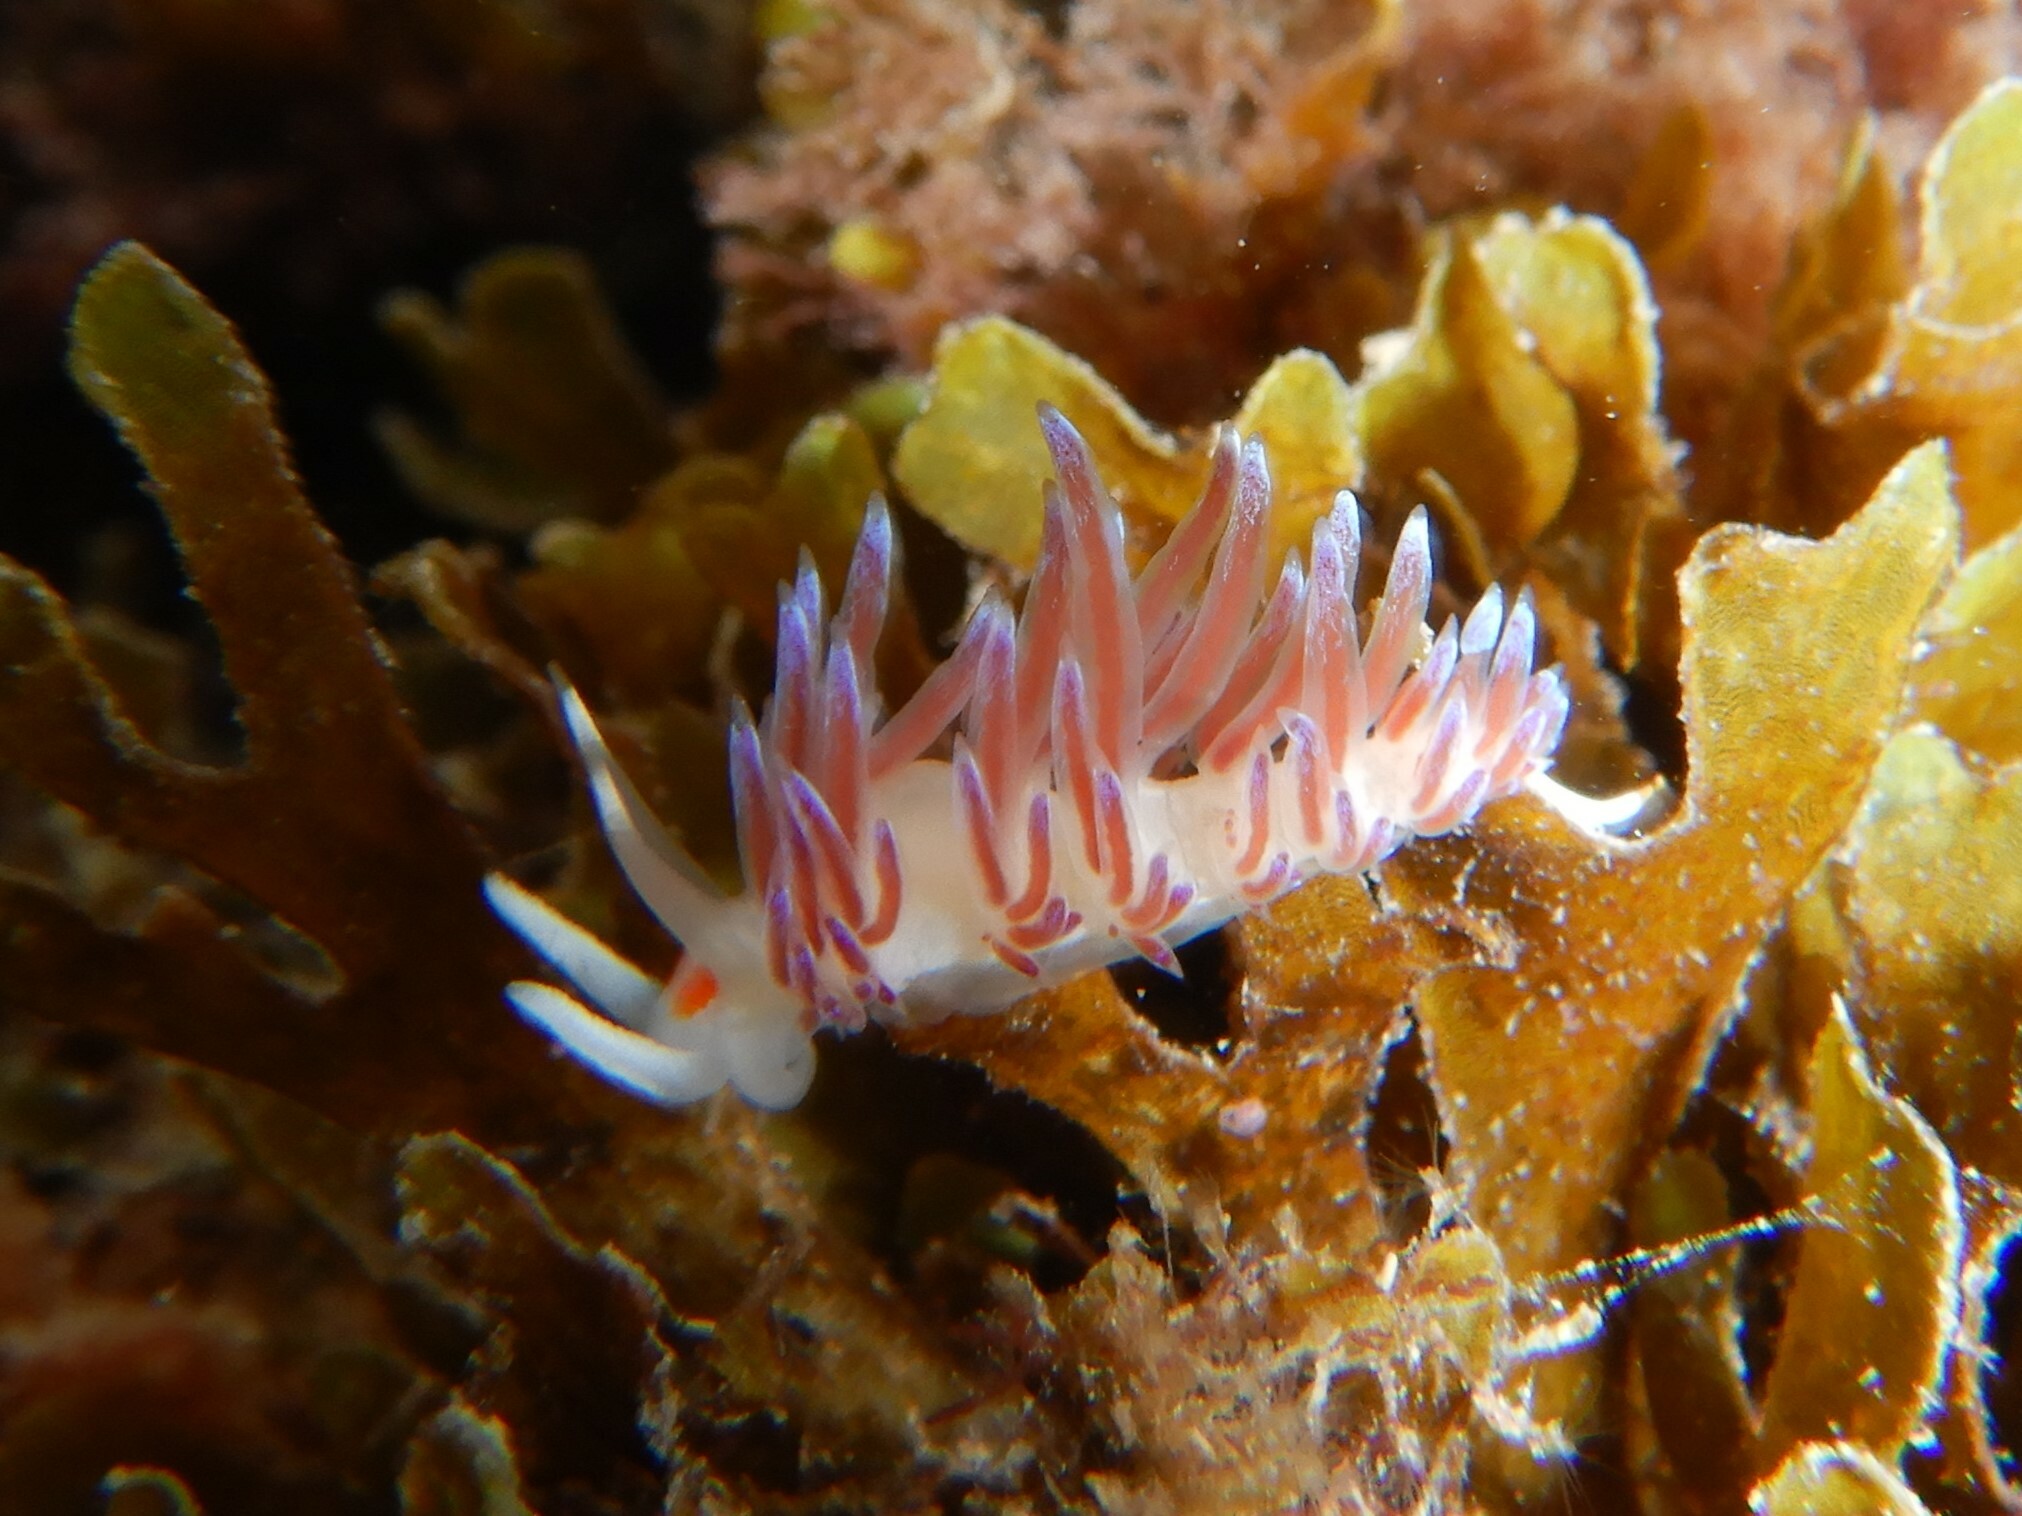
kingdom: Animalia
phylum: Mollusca
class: Gastropoda
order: Nudibranchia
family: Facelinidae
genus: Cratena
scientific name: Cratena peregrina
